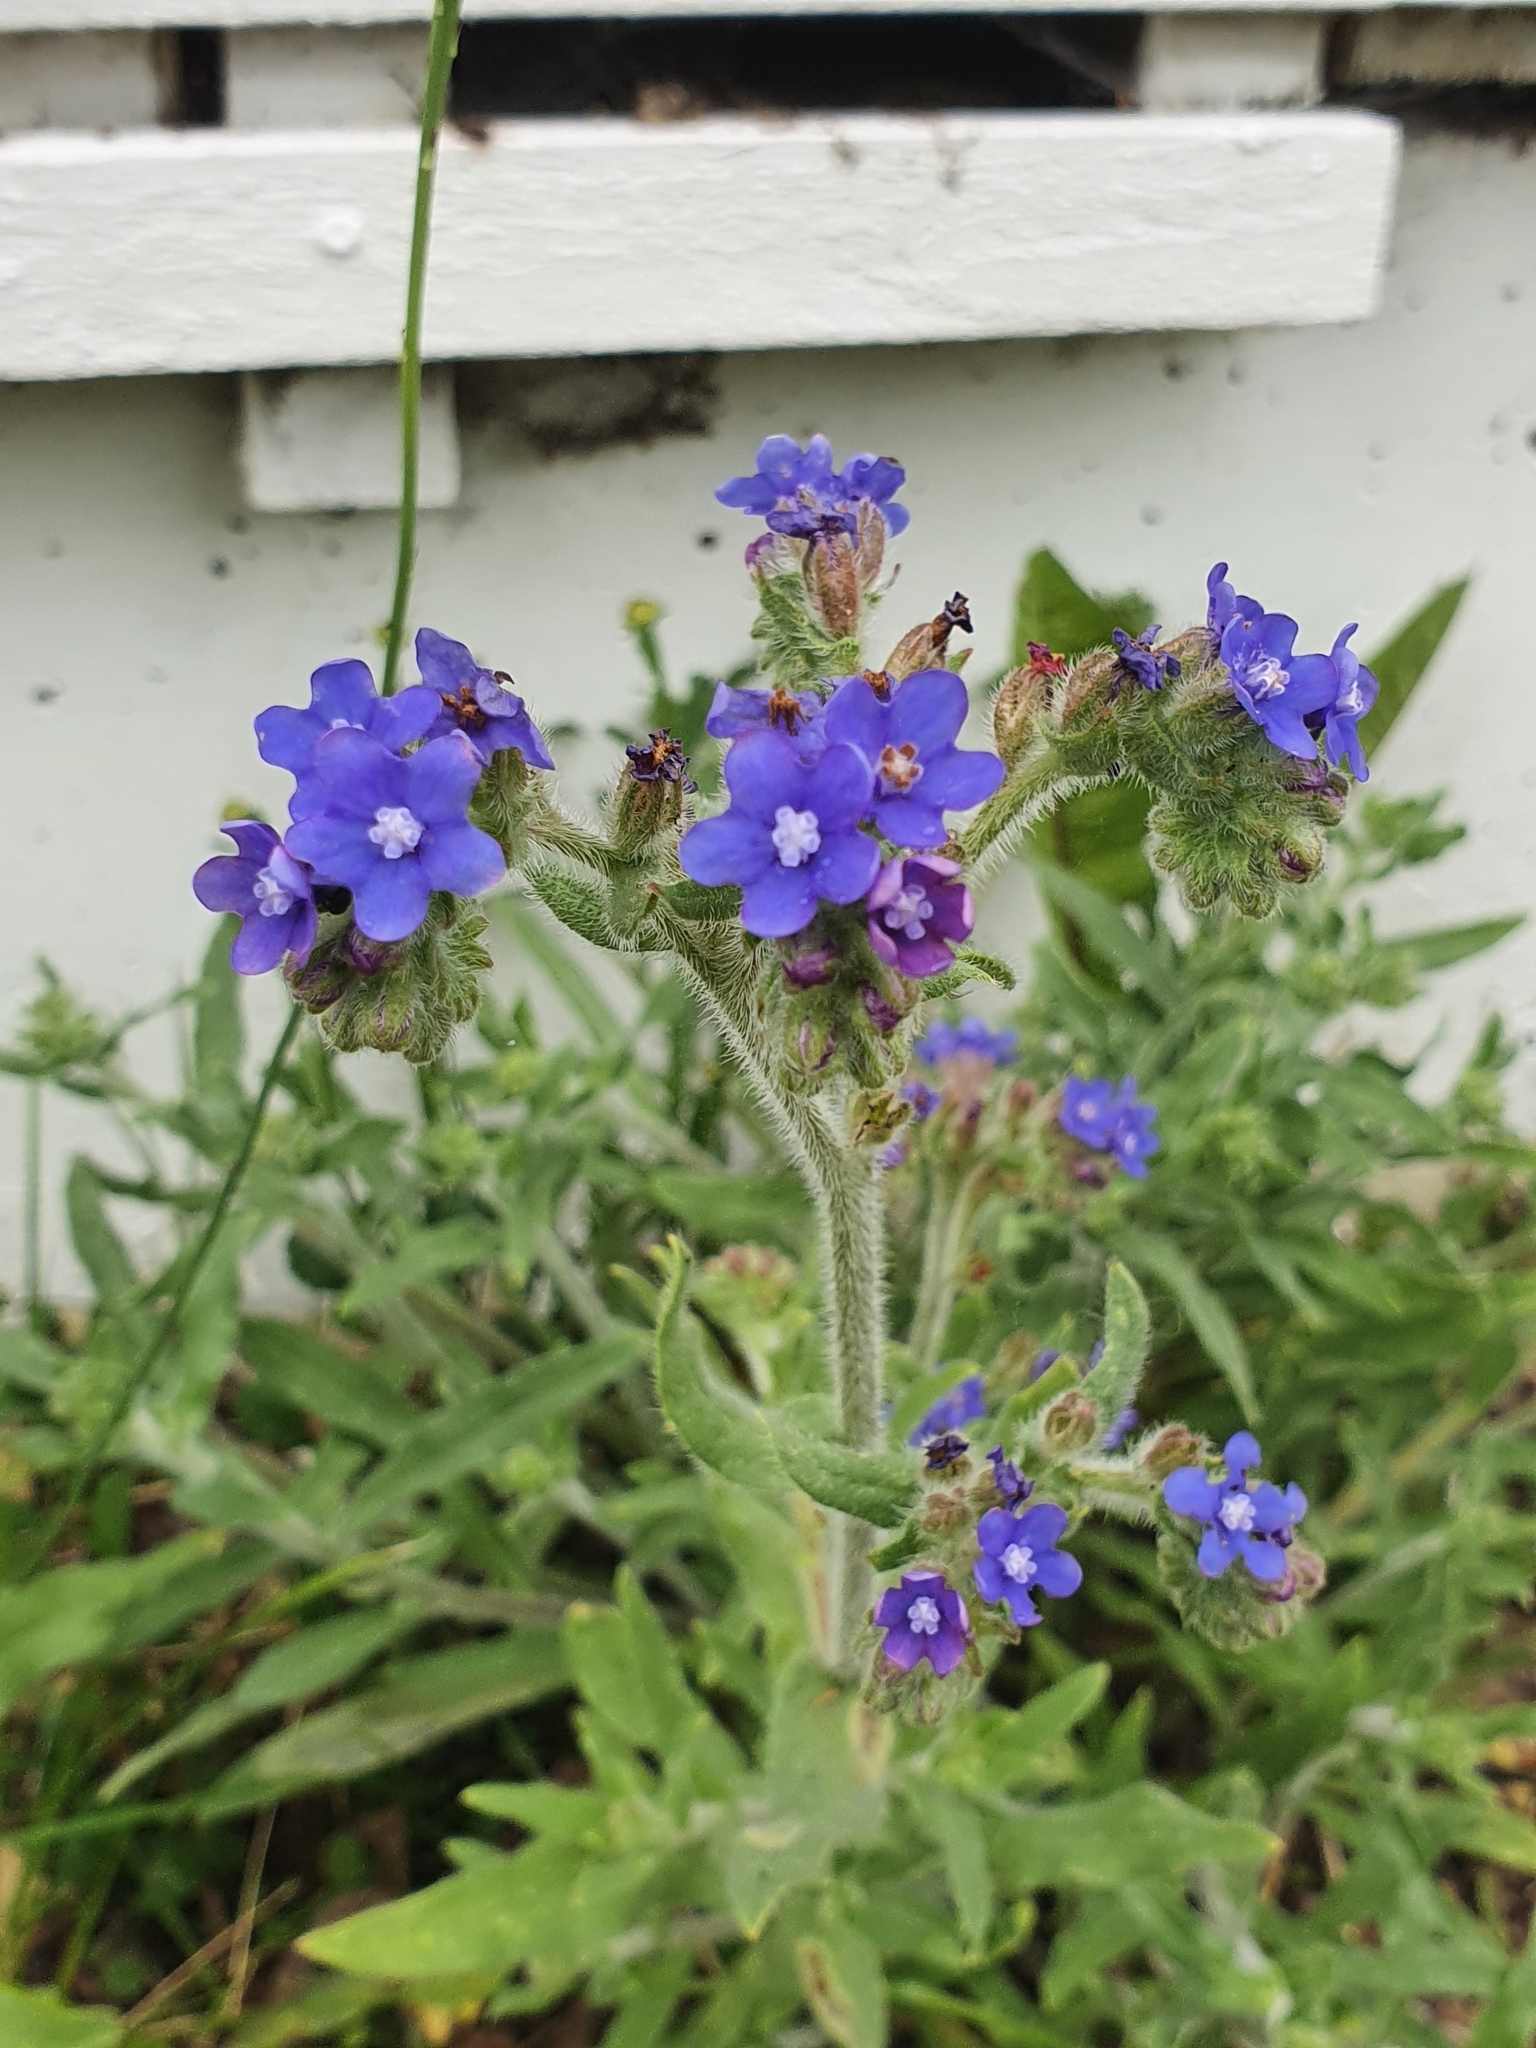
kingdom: Plantae
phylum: Tracheophyta
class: Magnoliopsida
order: Boraginales
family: Boraginaceae
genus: Anchusa
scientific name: Anchusa officinalis
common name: Alkanet
